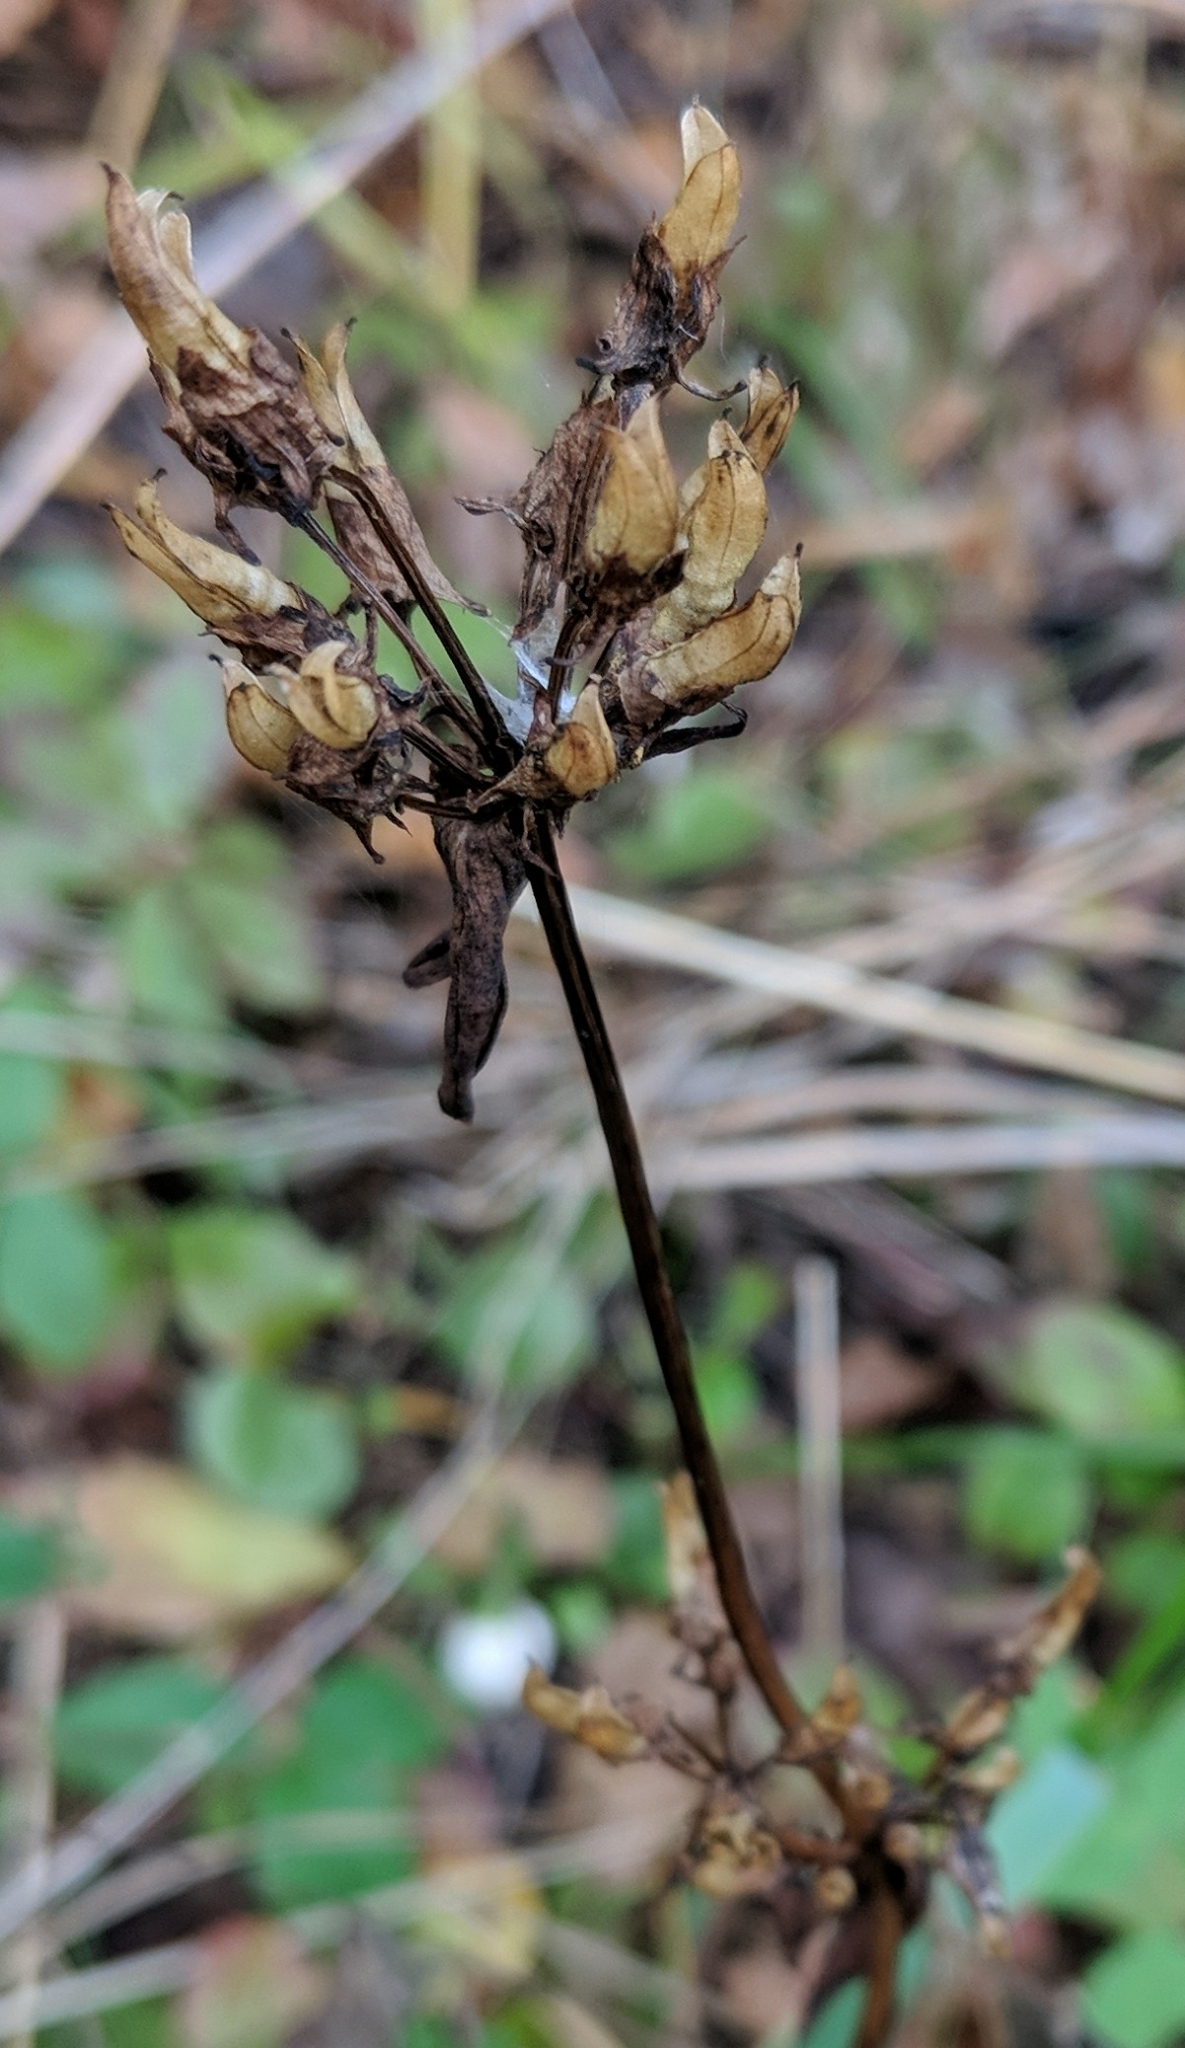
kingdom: Plantae
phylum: Tracheophyta
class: Magnoliopsida
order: Gentianales
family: Gentianaceae
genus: Halenia
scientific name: Halenia deflexa
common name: American spurred gentian
